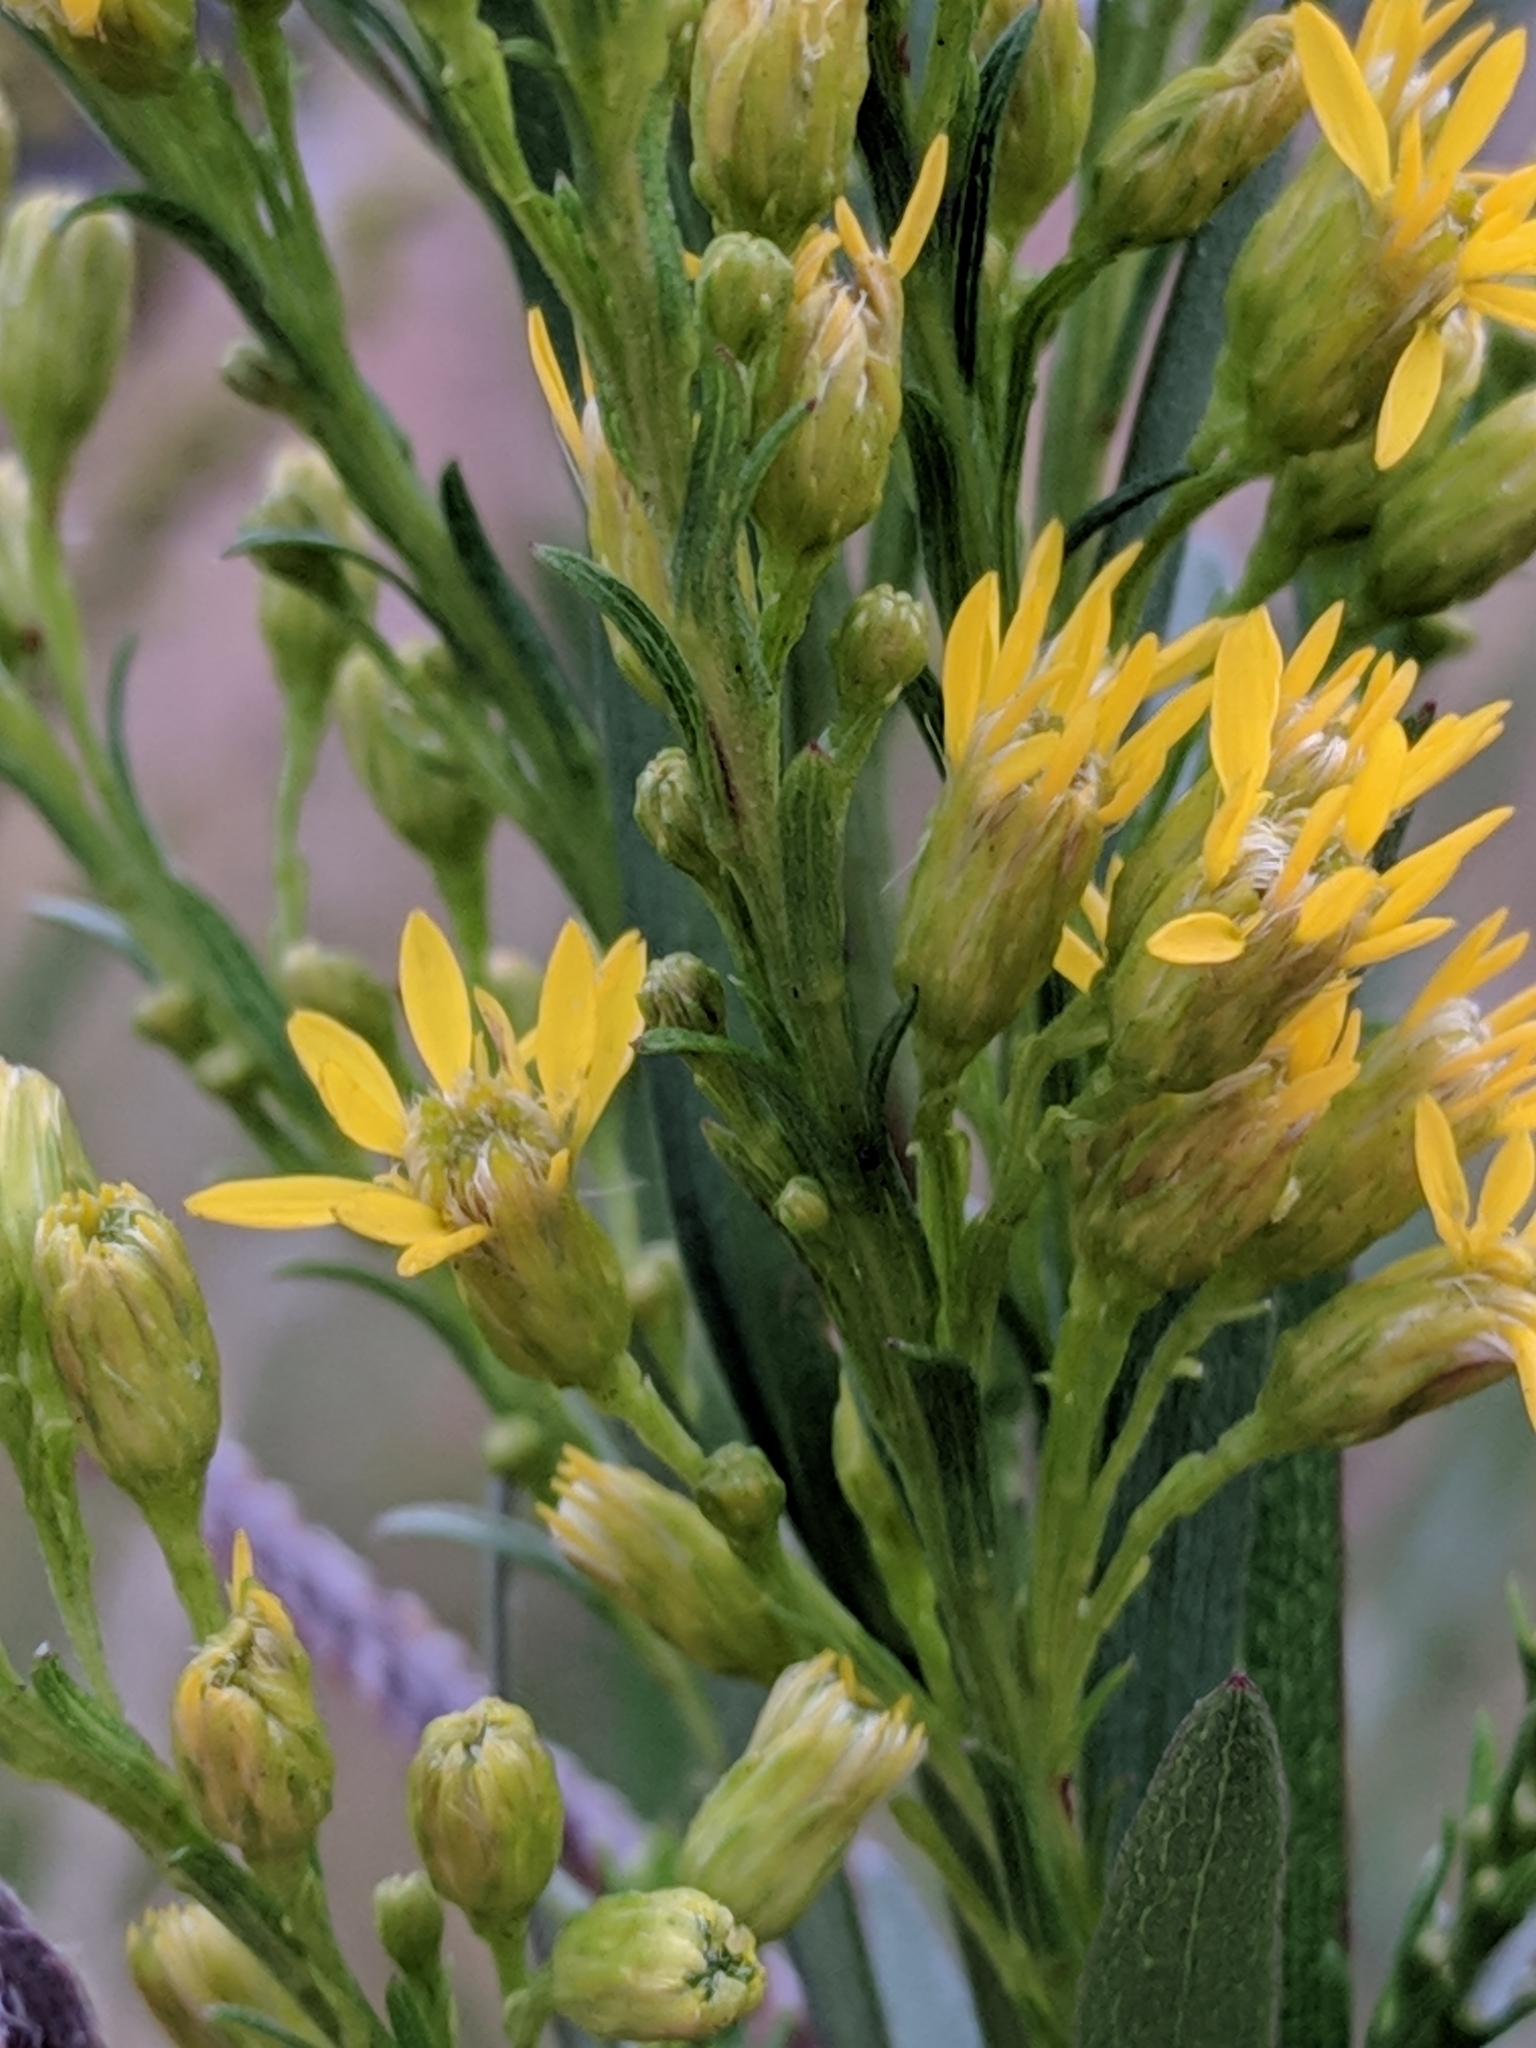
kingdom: Plantae
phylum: Tracheophyta
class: Magnoliopsida
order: Asterales
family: Asteraceae
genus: Solidago
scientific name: Solidago mexicana
